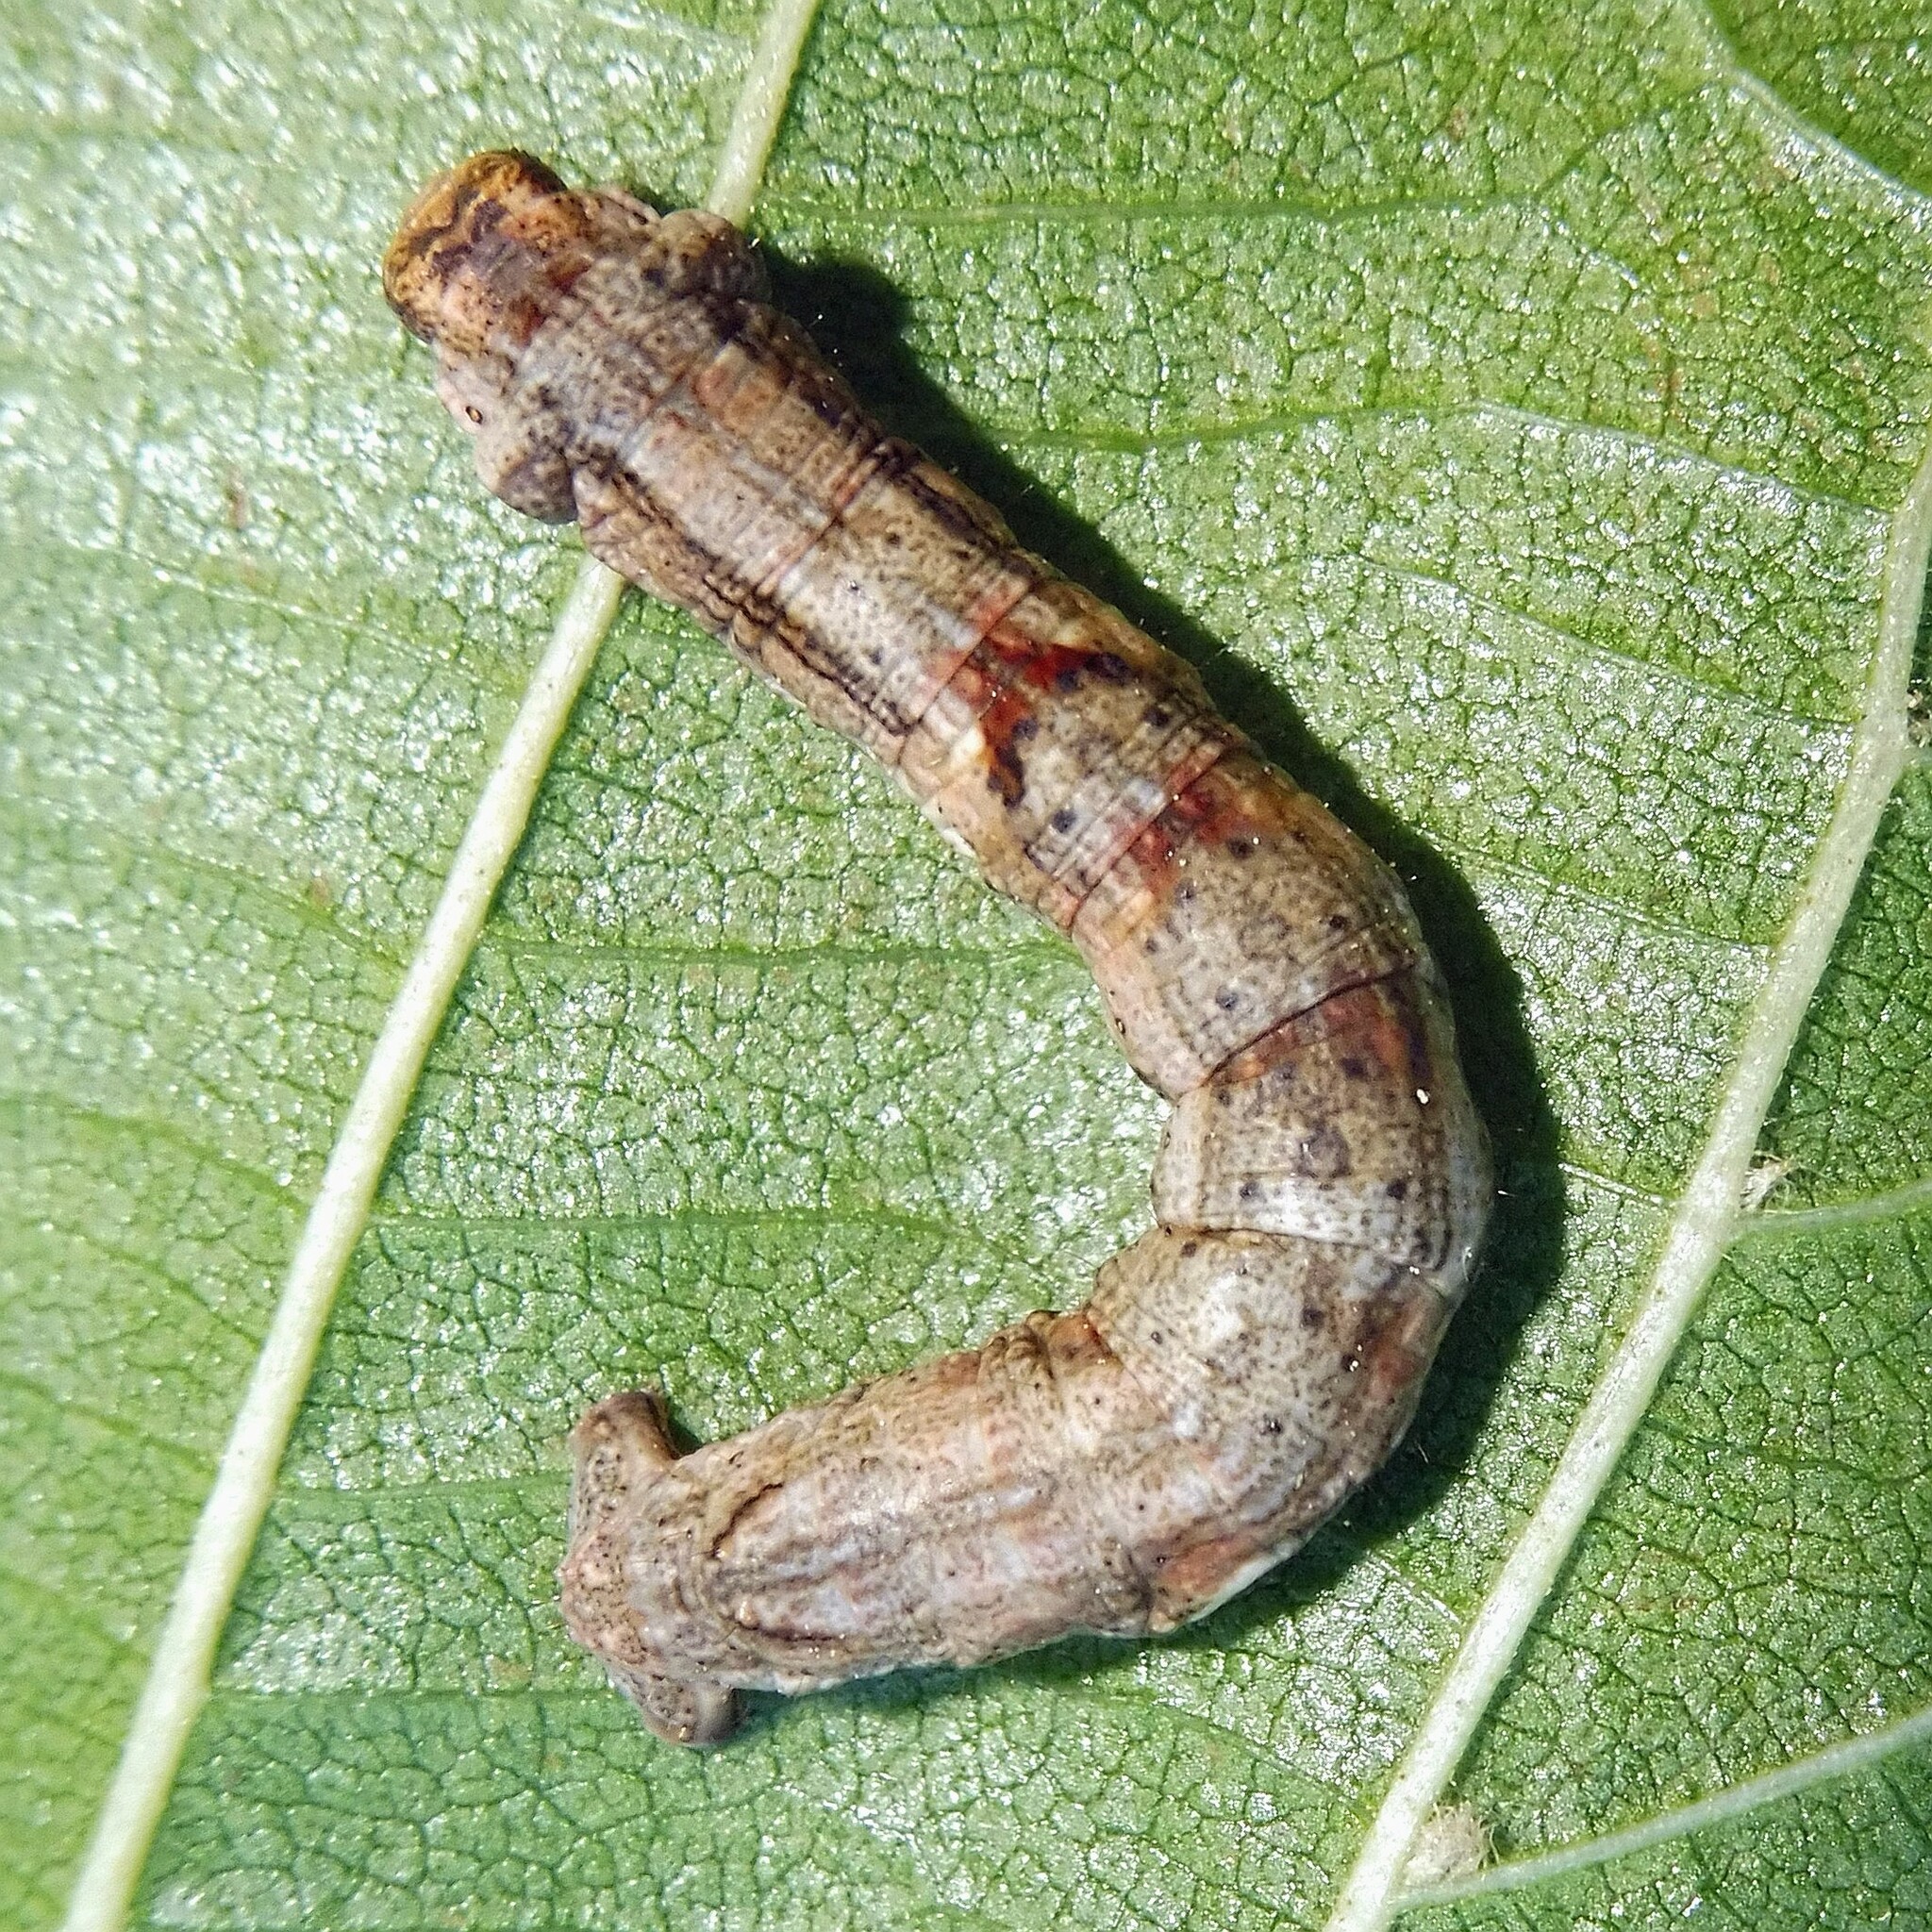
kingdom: Animalia
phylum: Arthropoda
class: Insecta
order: Lepidoptera
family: Geometridae
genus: Ectropis
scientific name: Ectropis crepuscularia
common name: Engrailed
